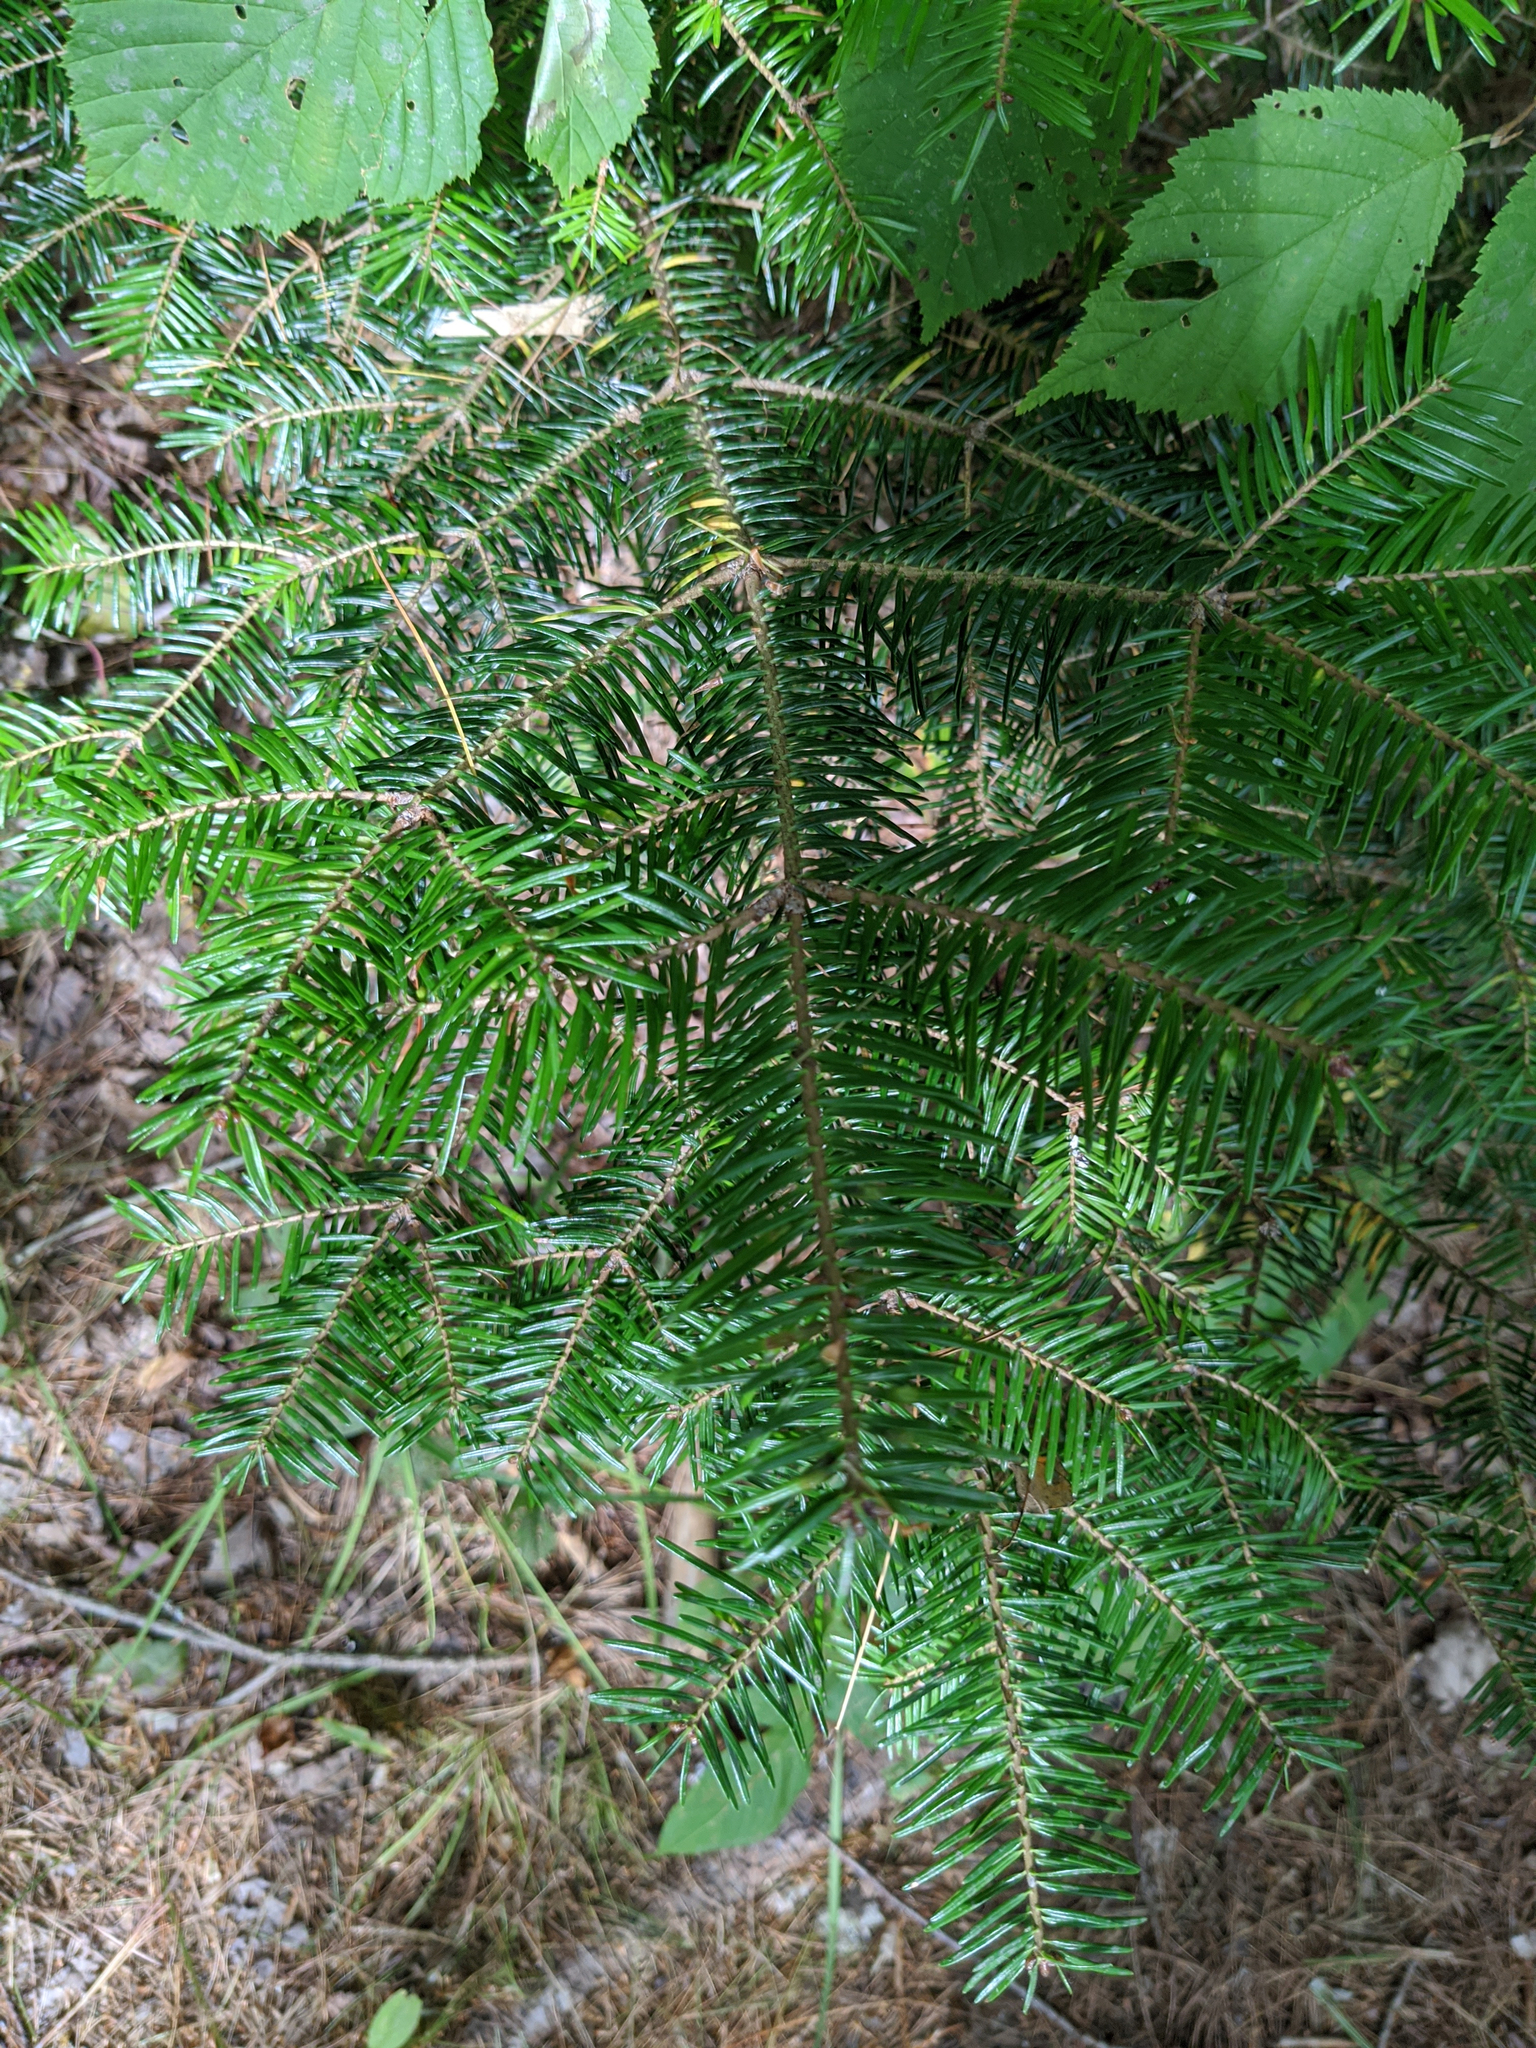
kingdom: Plantae
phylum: Tracheophyta
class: Pinopsida
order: Pinales
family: Pinaceae
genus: Abies
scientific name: Abies balsamea
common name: Balsam fir
